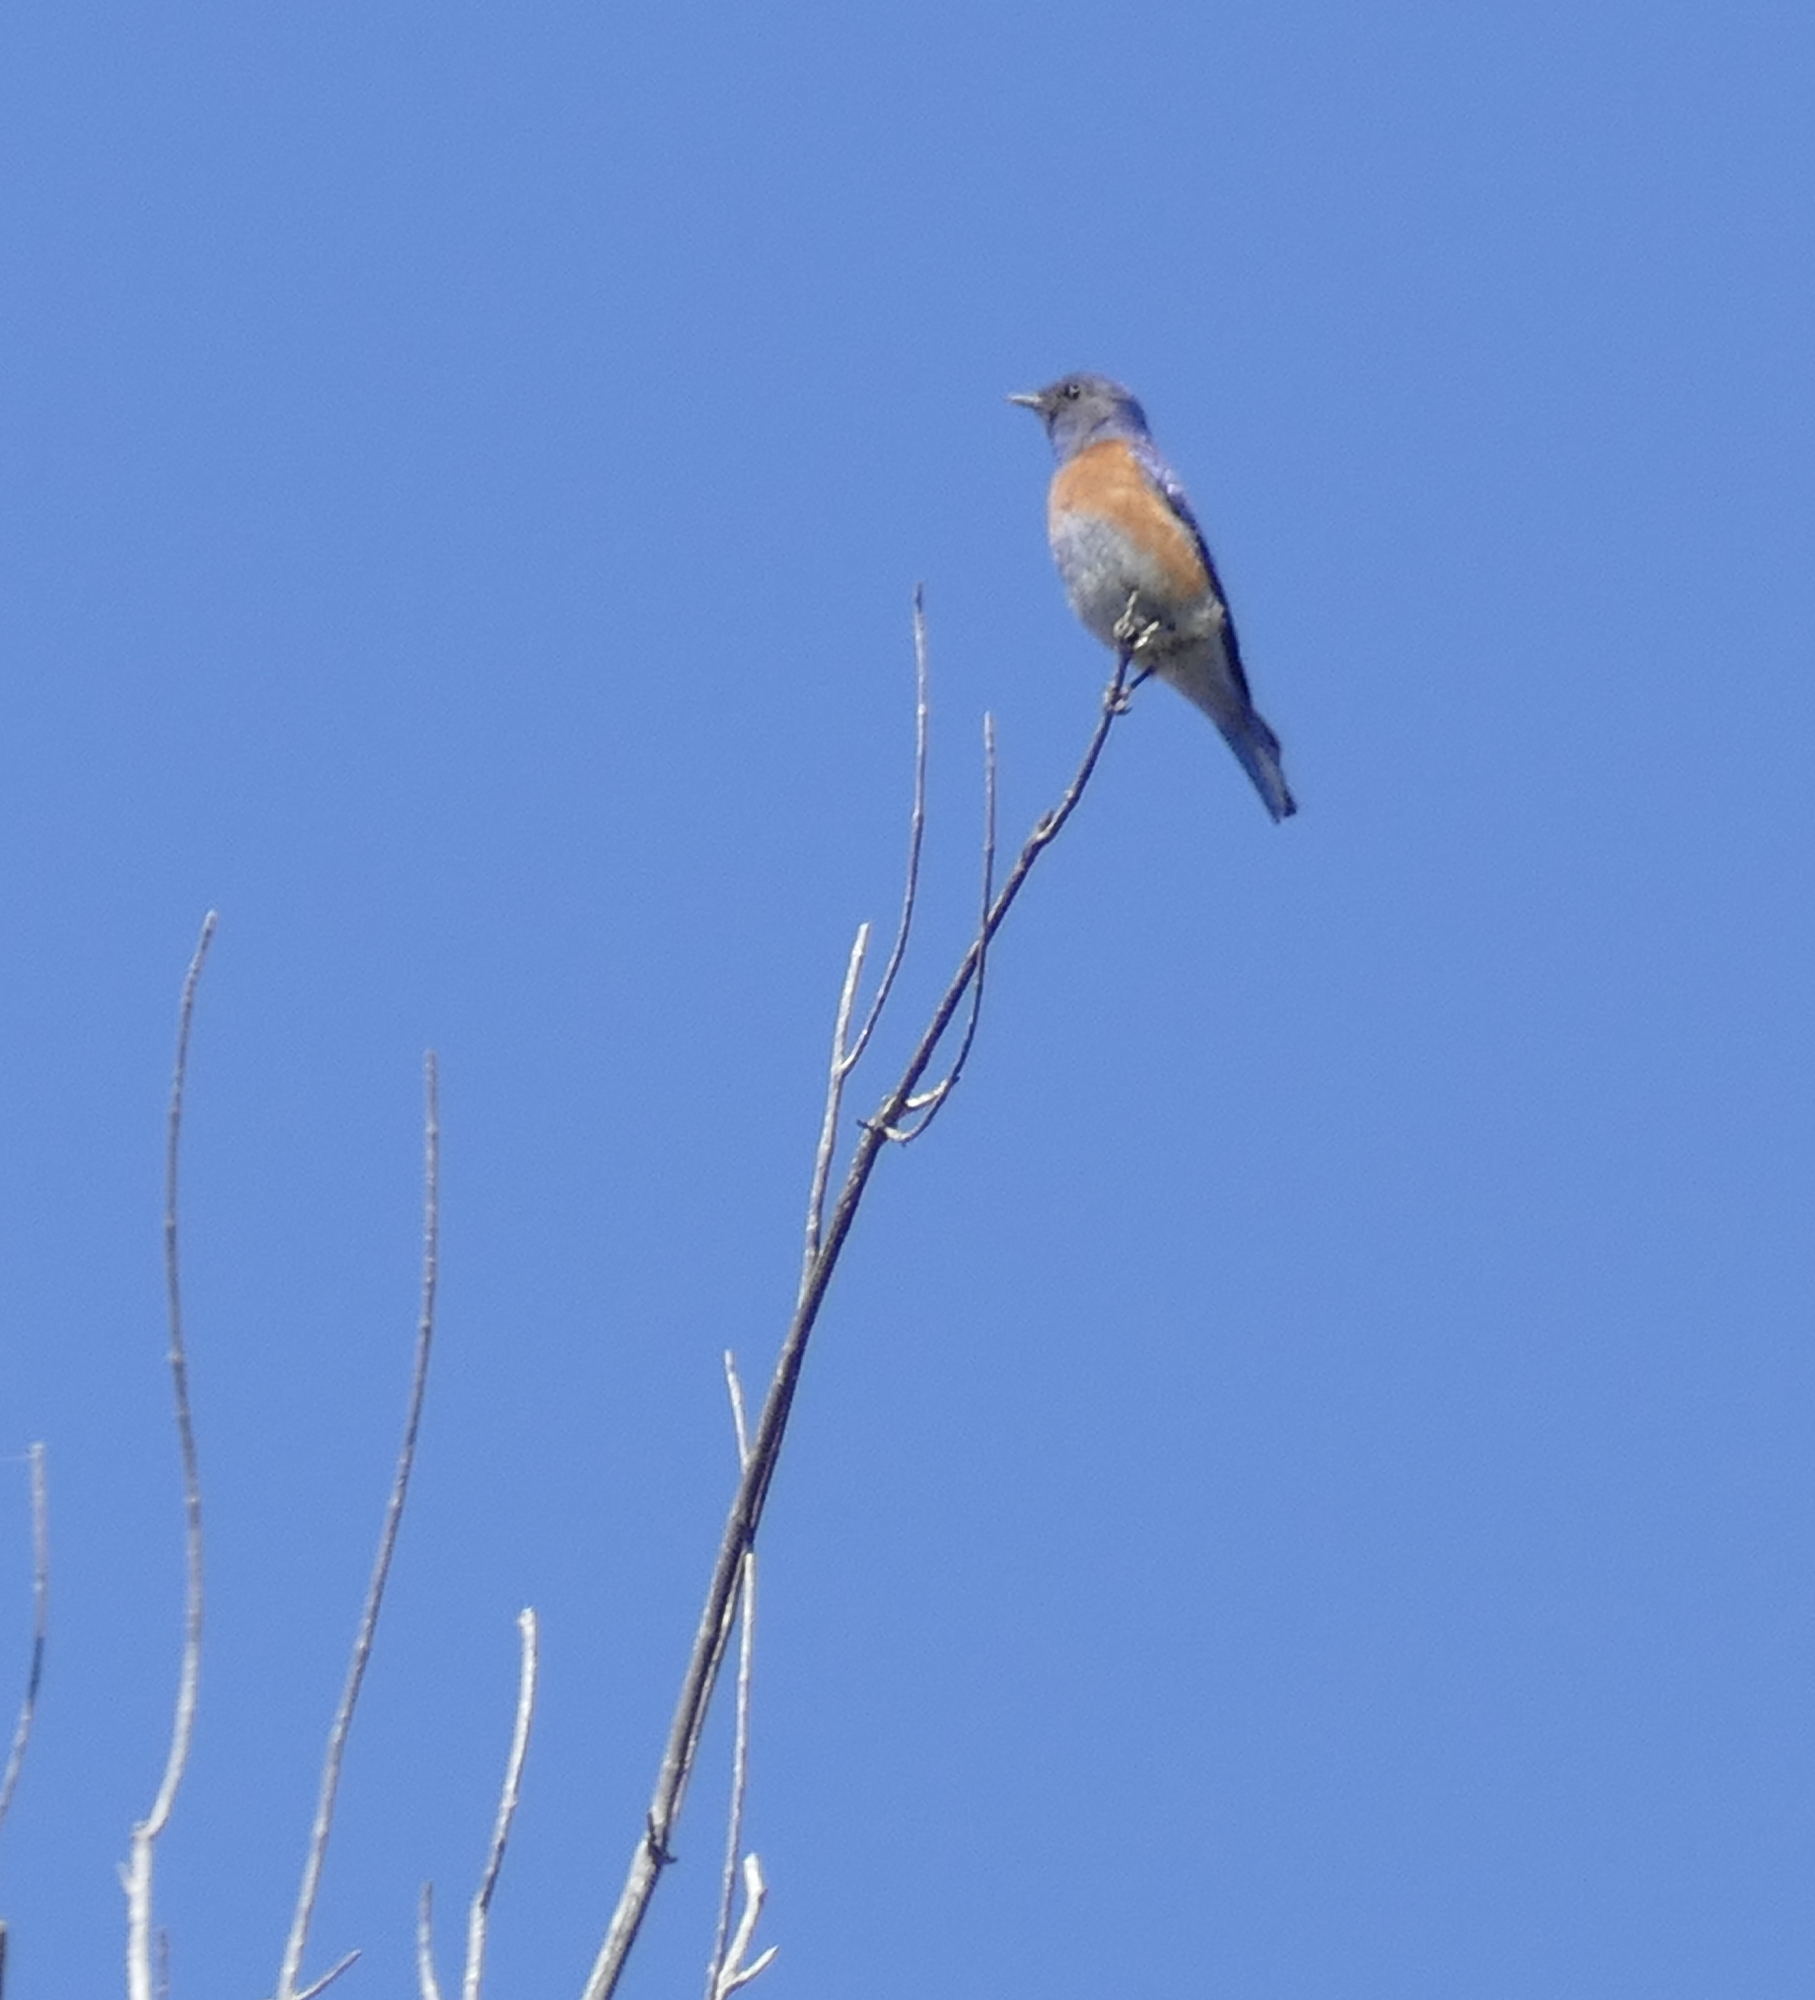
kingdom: Animalia
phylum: Chordata
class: Aves
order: Passeriformes
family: Turdidae
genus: Sialia
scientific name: Sialia mexicana
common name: Western bluebird
